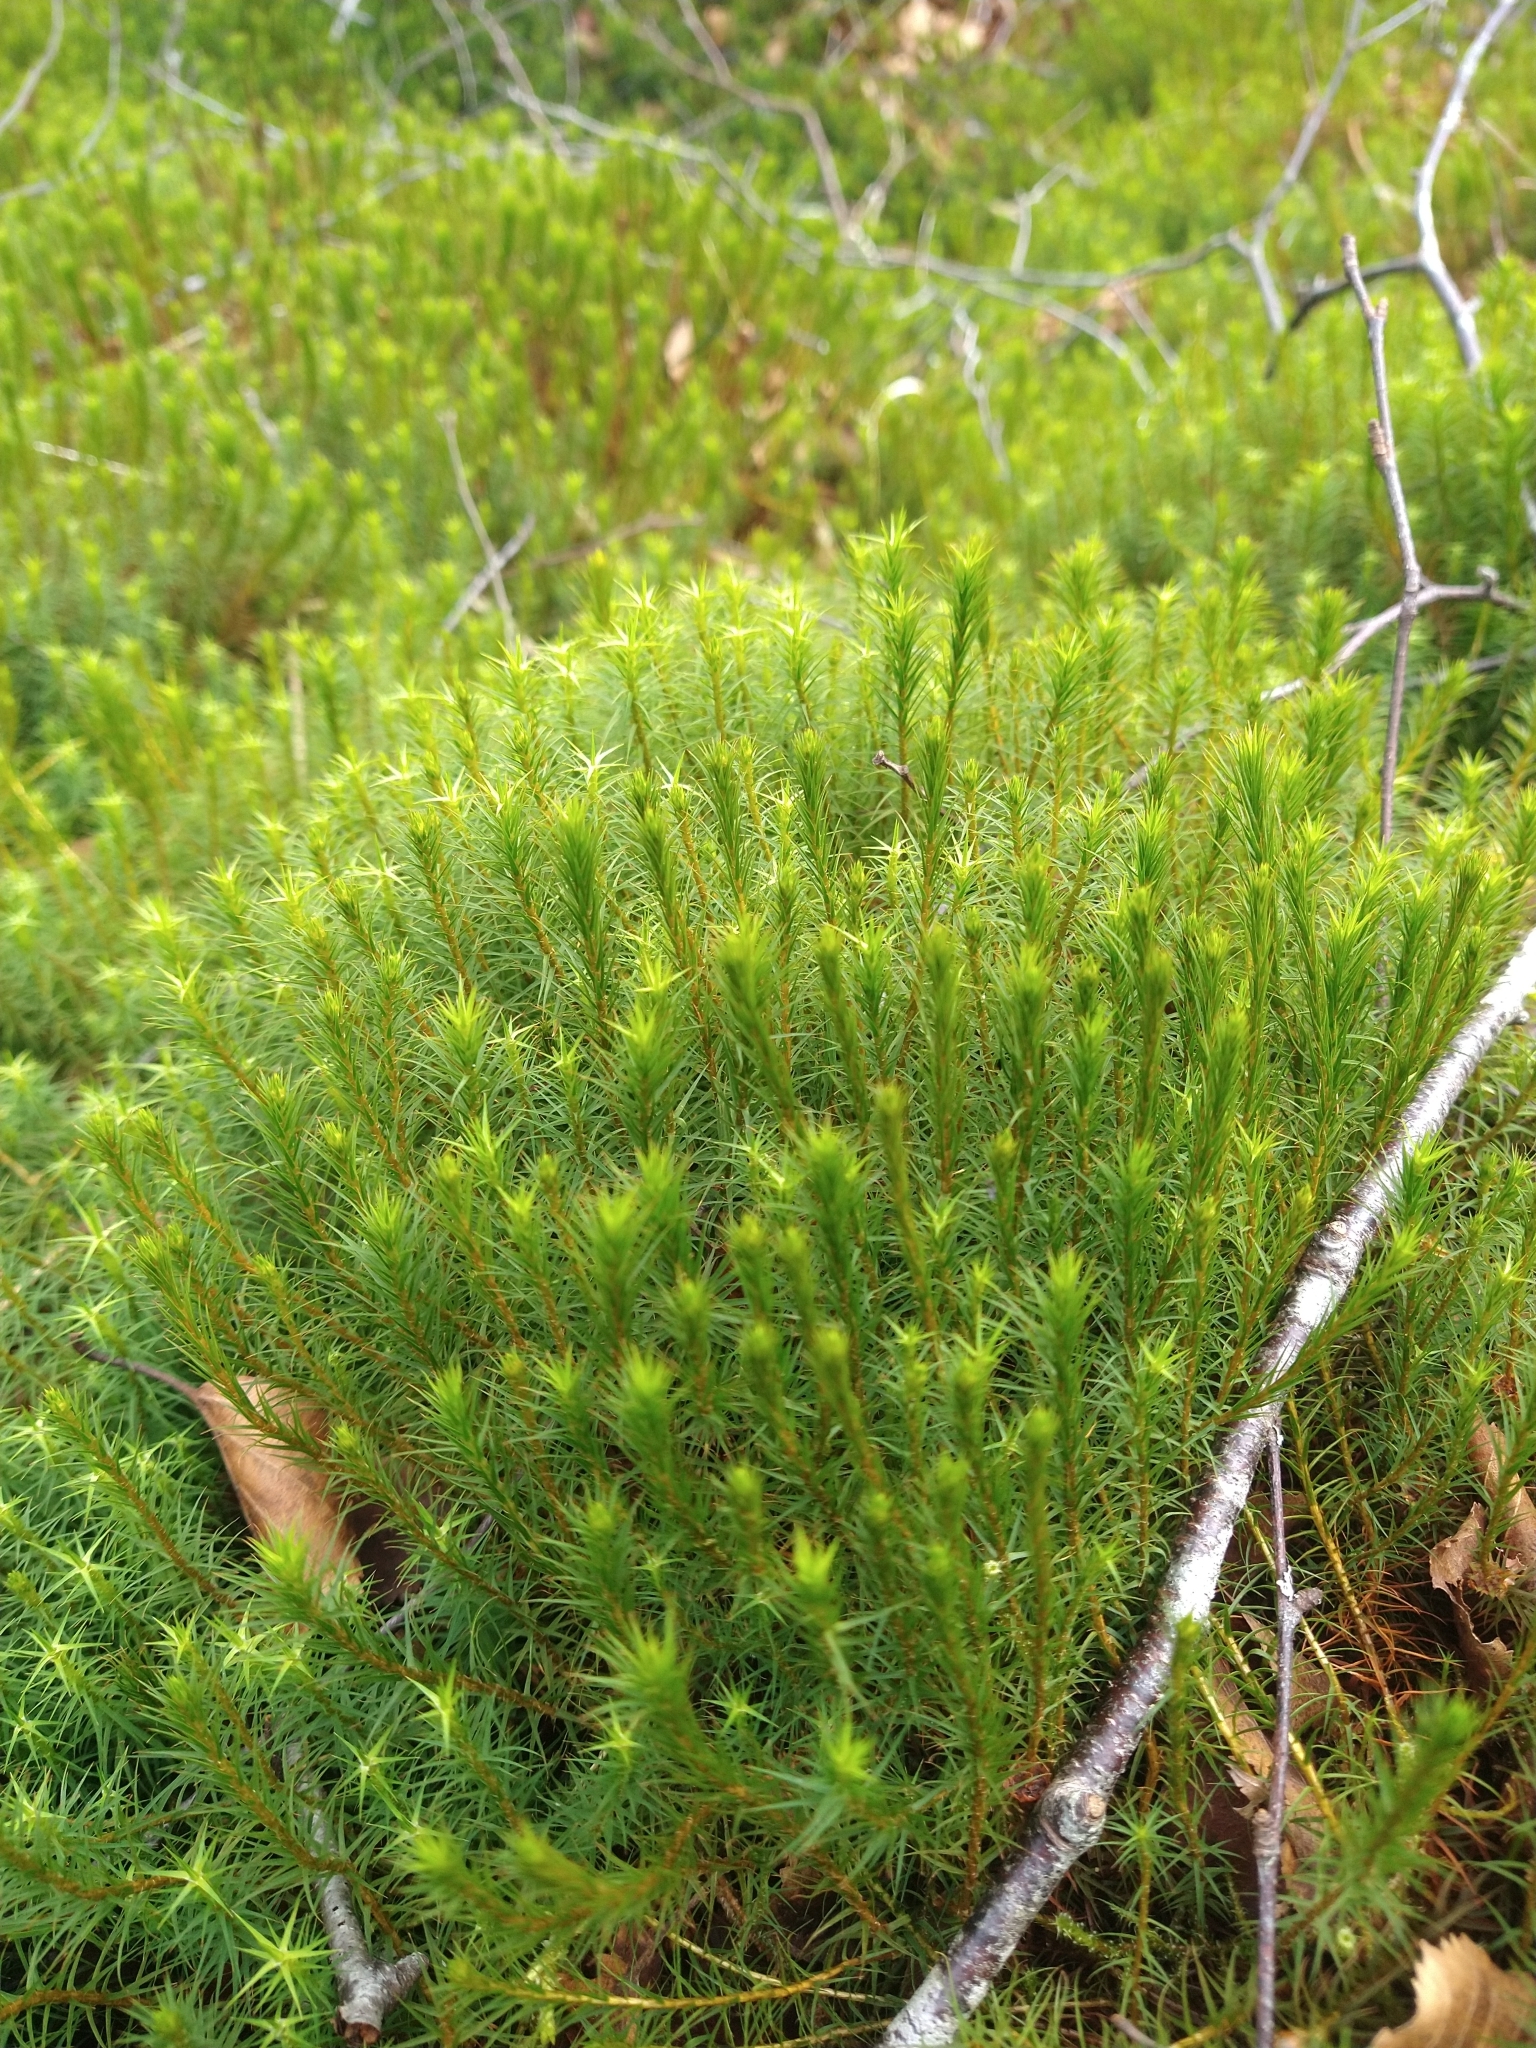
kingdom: Plantae
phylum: Bryophyta
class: Polytrichopsida
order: Polytrichales
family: Polytrichaceae
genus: Polytrichum
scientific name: Polytrichum commune
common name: Common haircap
